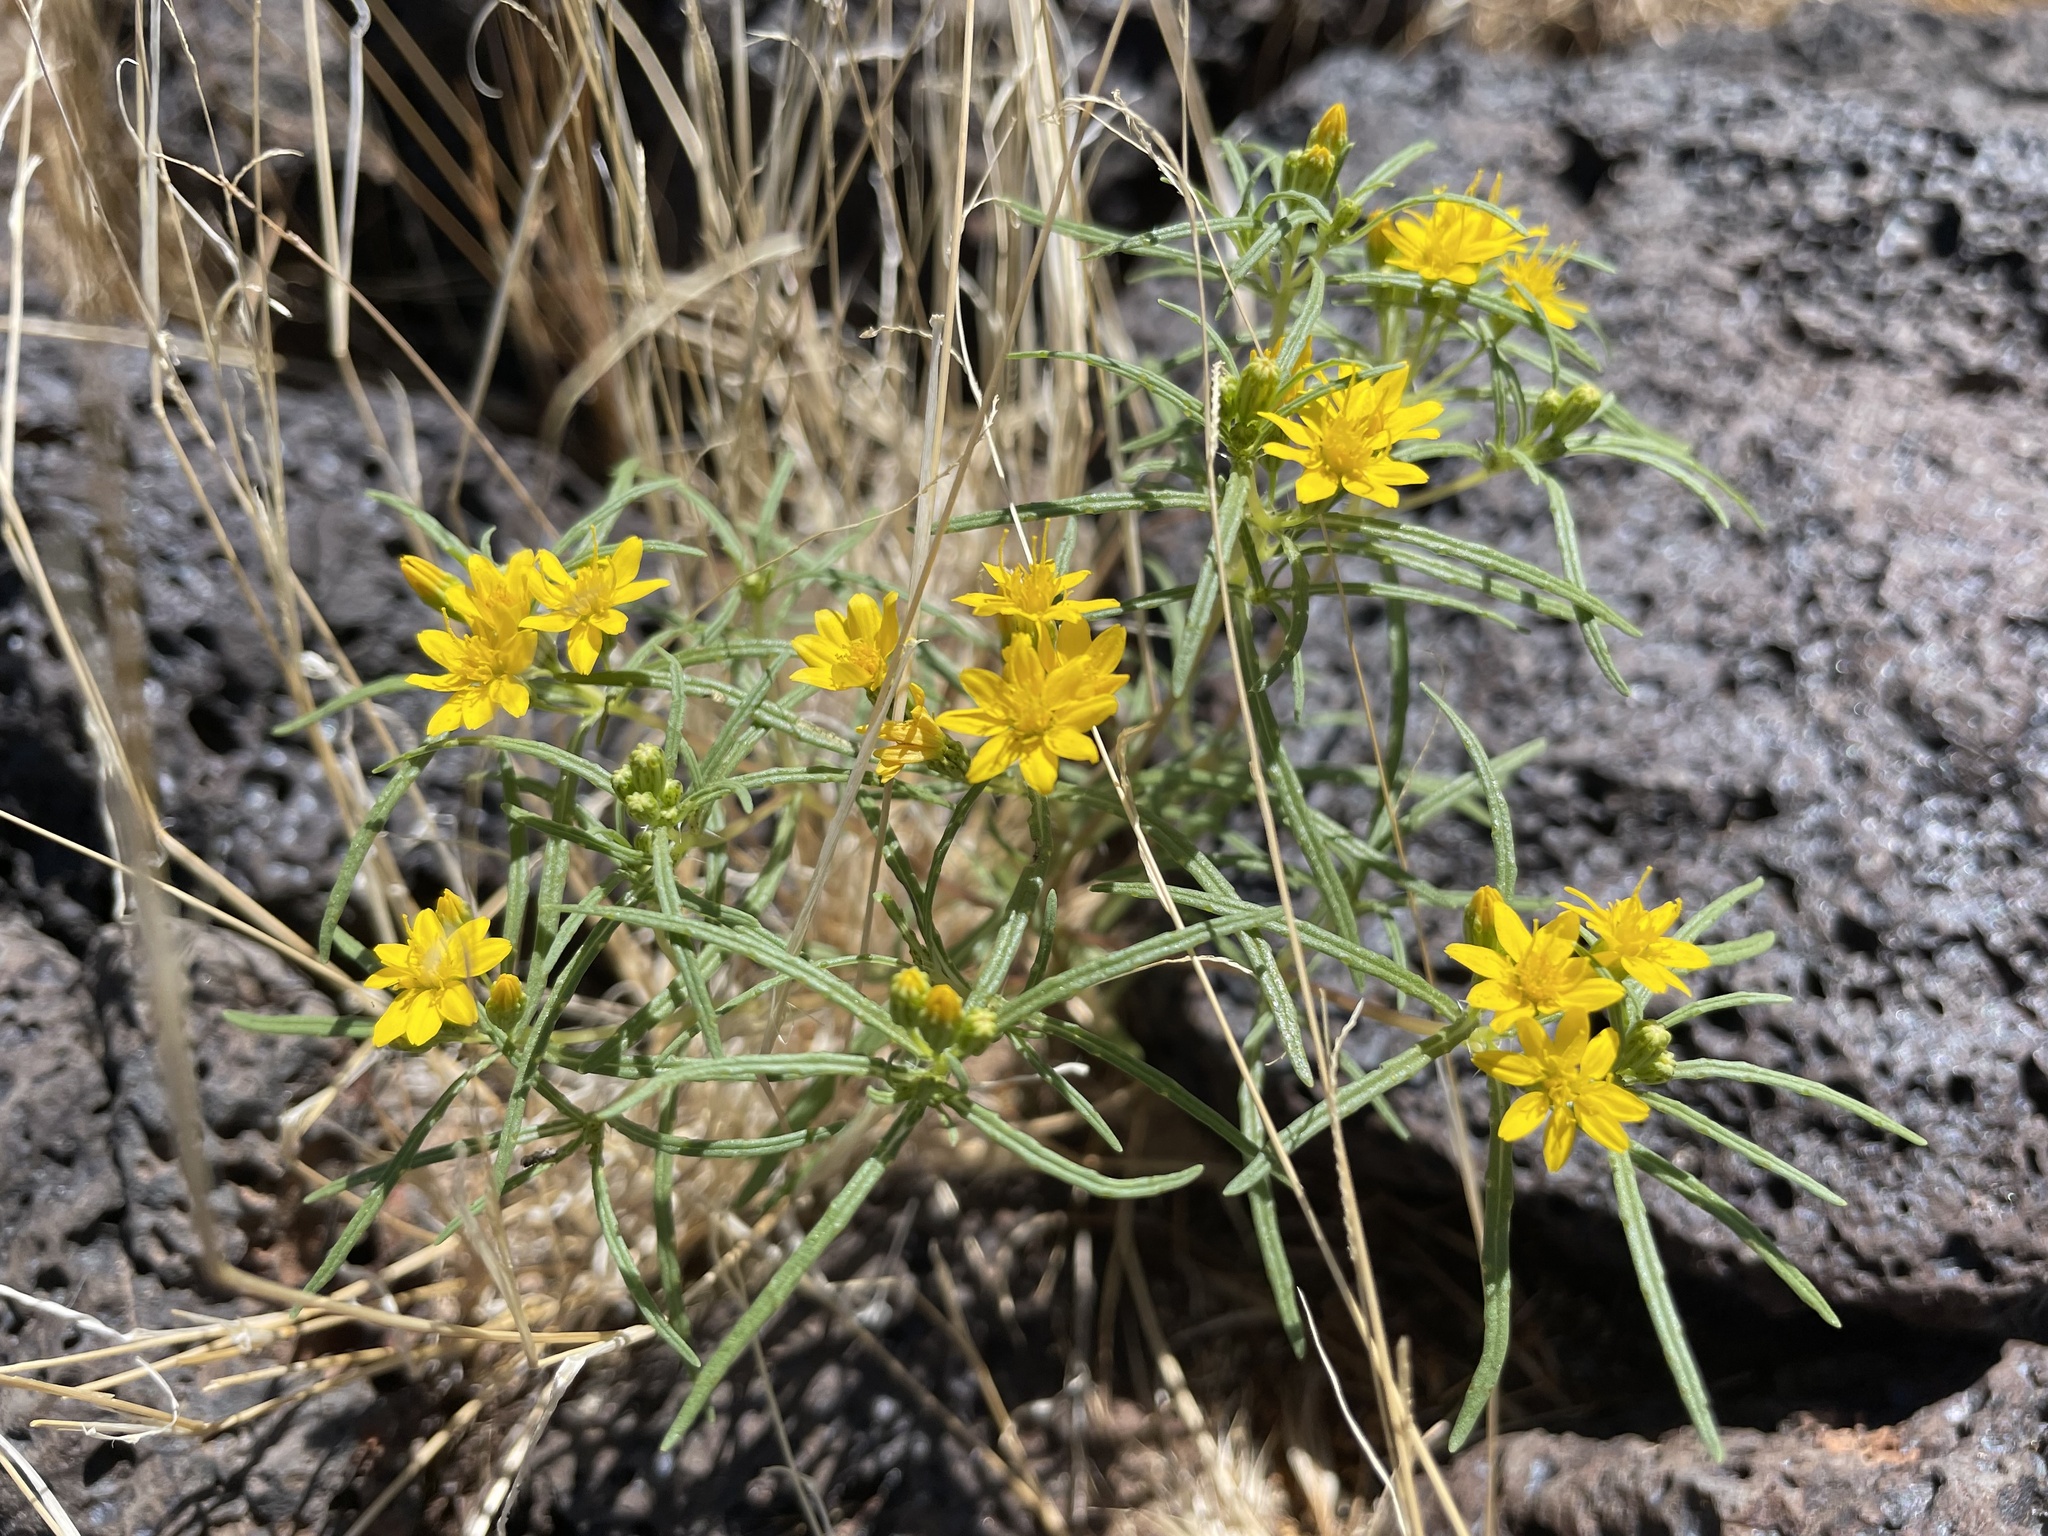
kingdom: Plantae
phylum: Tracheophyta
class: Magnoliopsida
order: Asterales
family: Asteraceae
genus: Pectis
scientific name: Pectis papposa
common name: Many-bristle chinchweed
